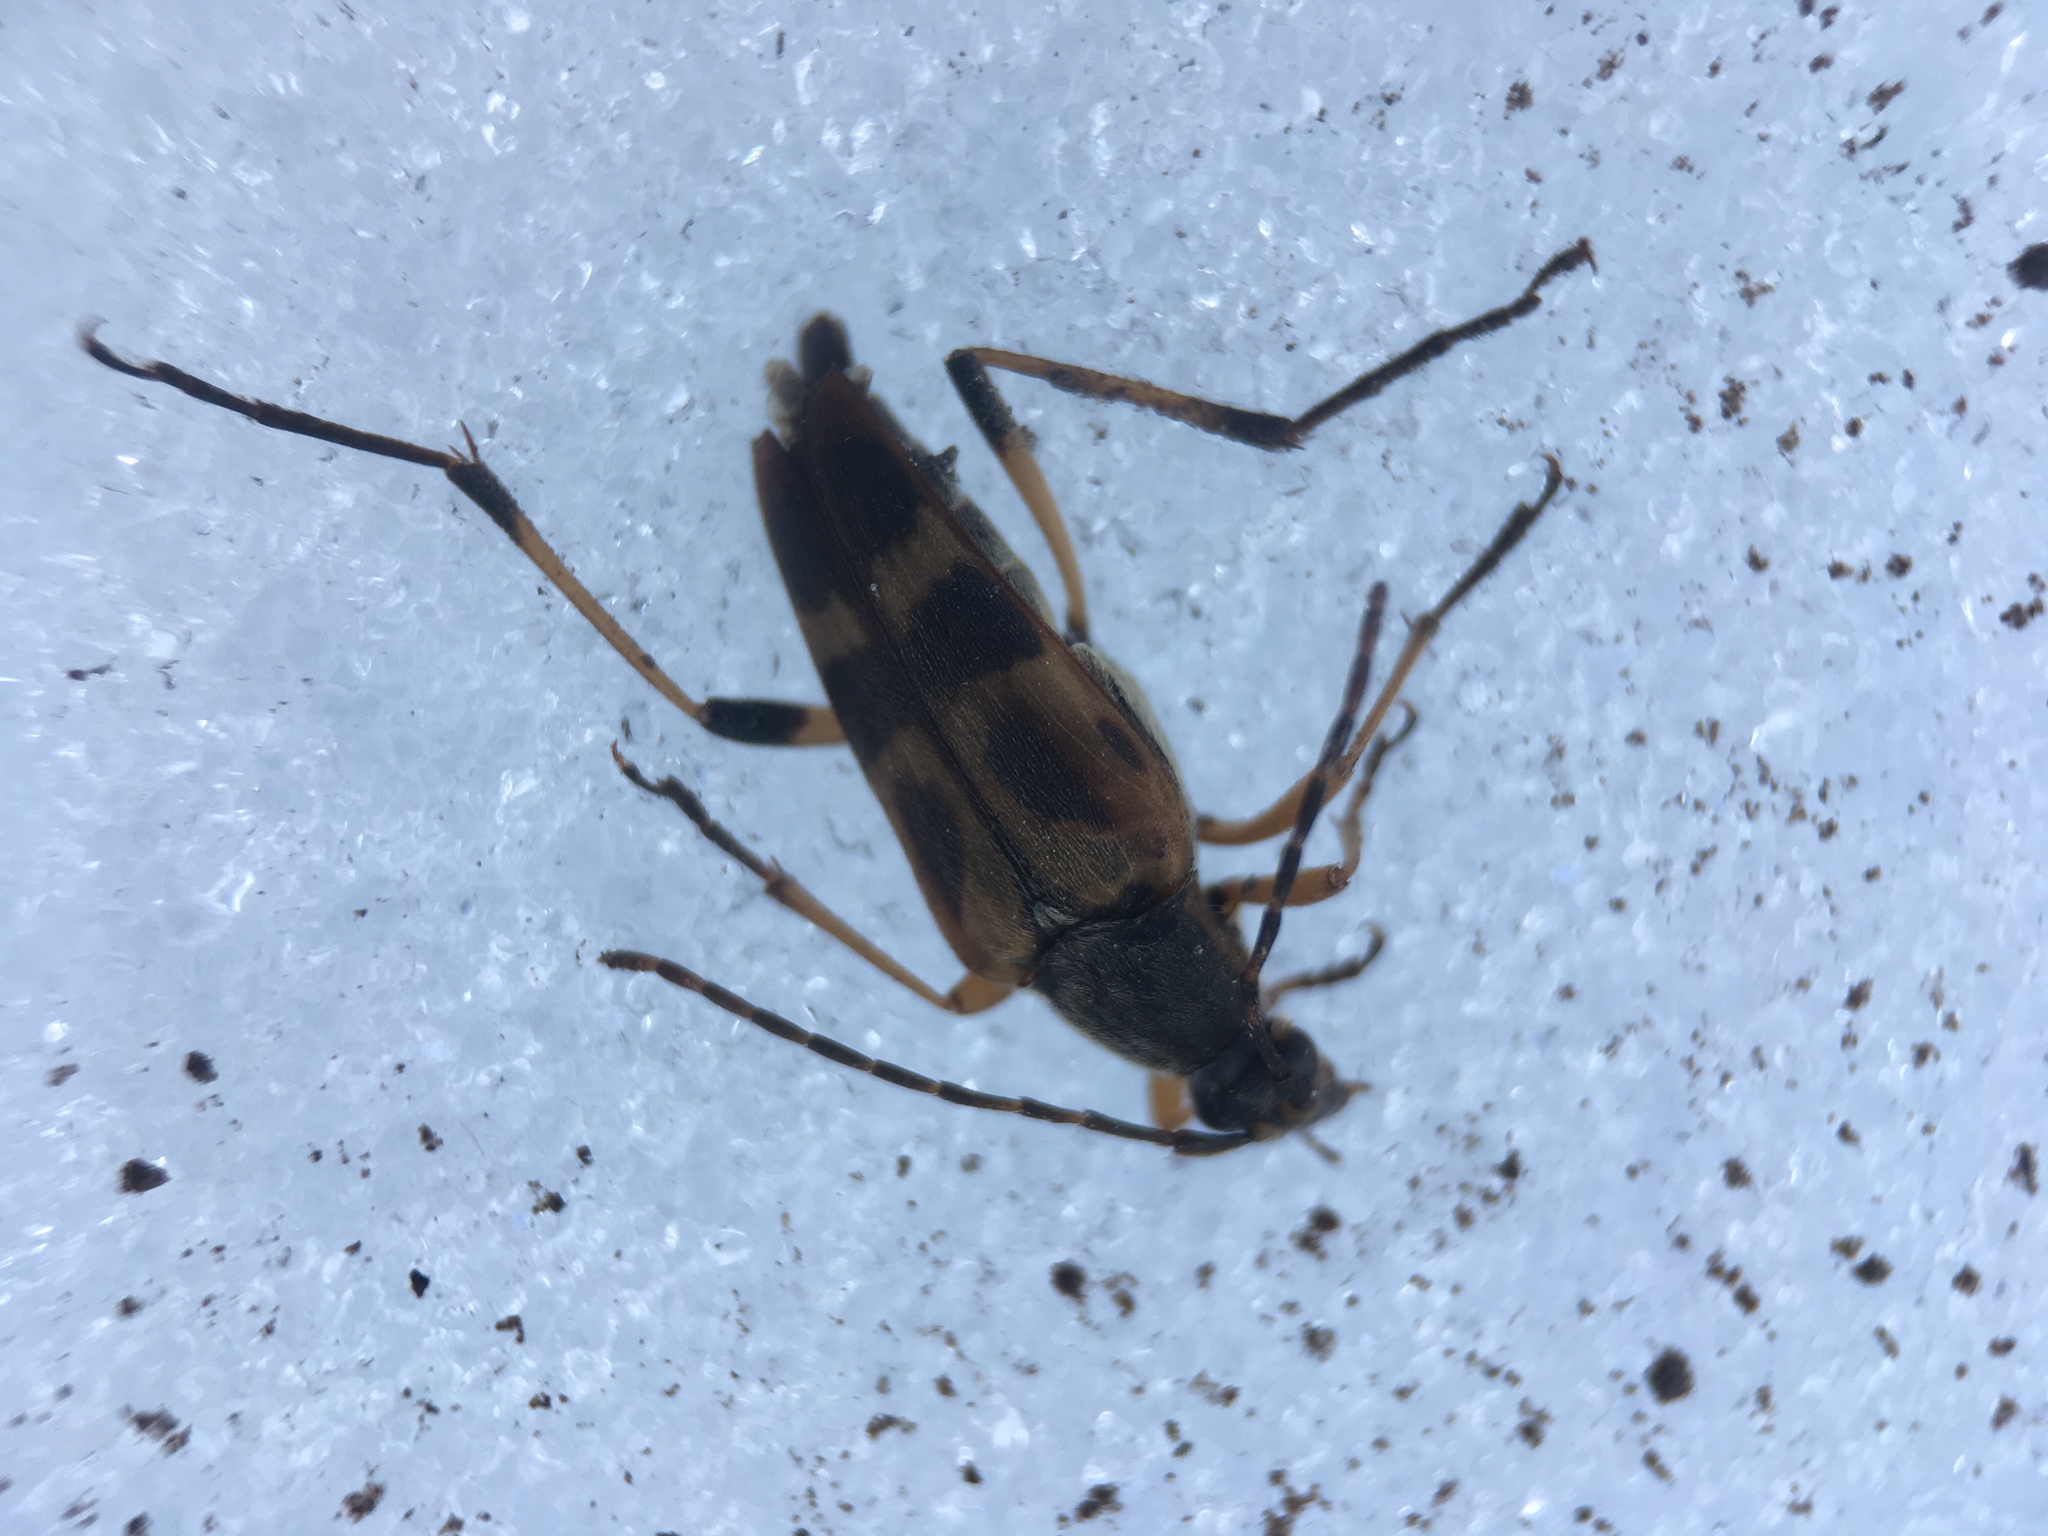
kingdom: Animalia
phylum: Arthropoda
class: Insecta
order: Coleoptera
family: Cerambycidae
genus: Etorofus
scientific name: Etorofus obliteratus
